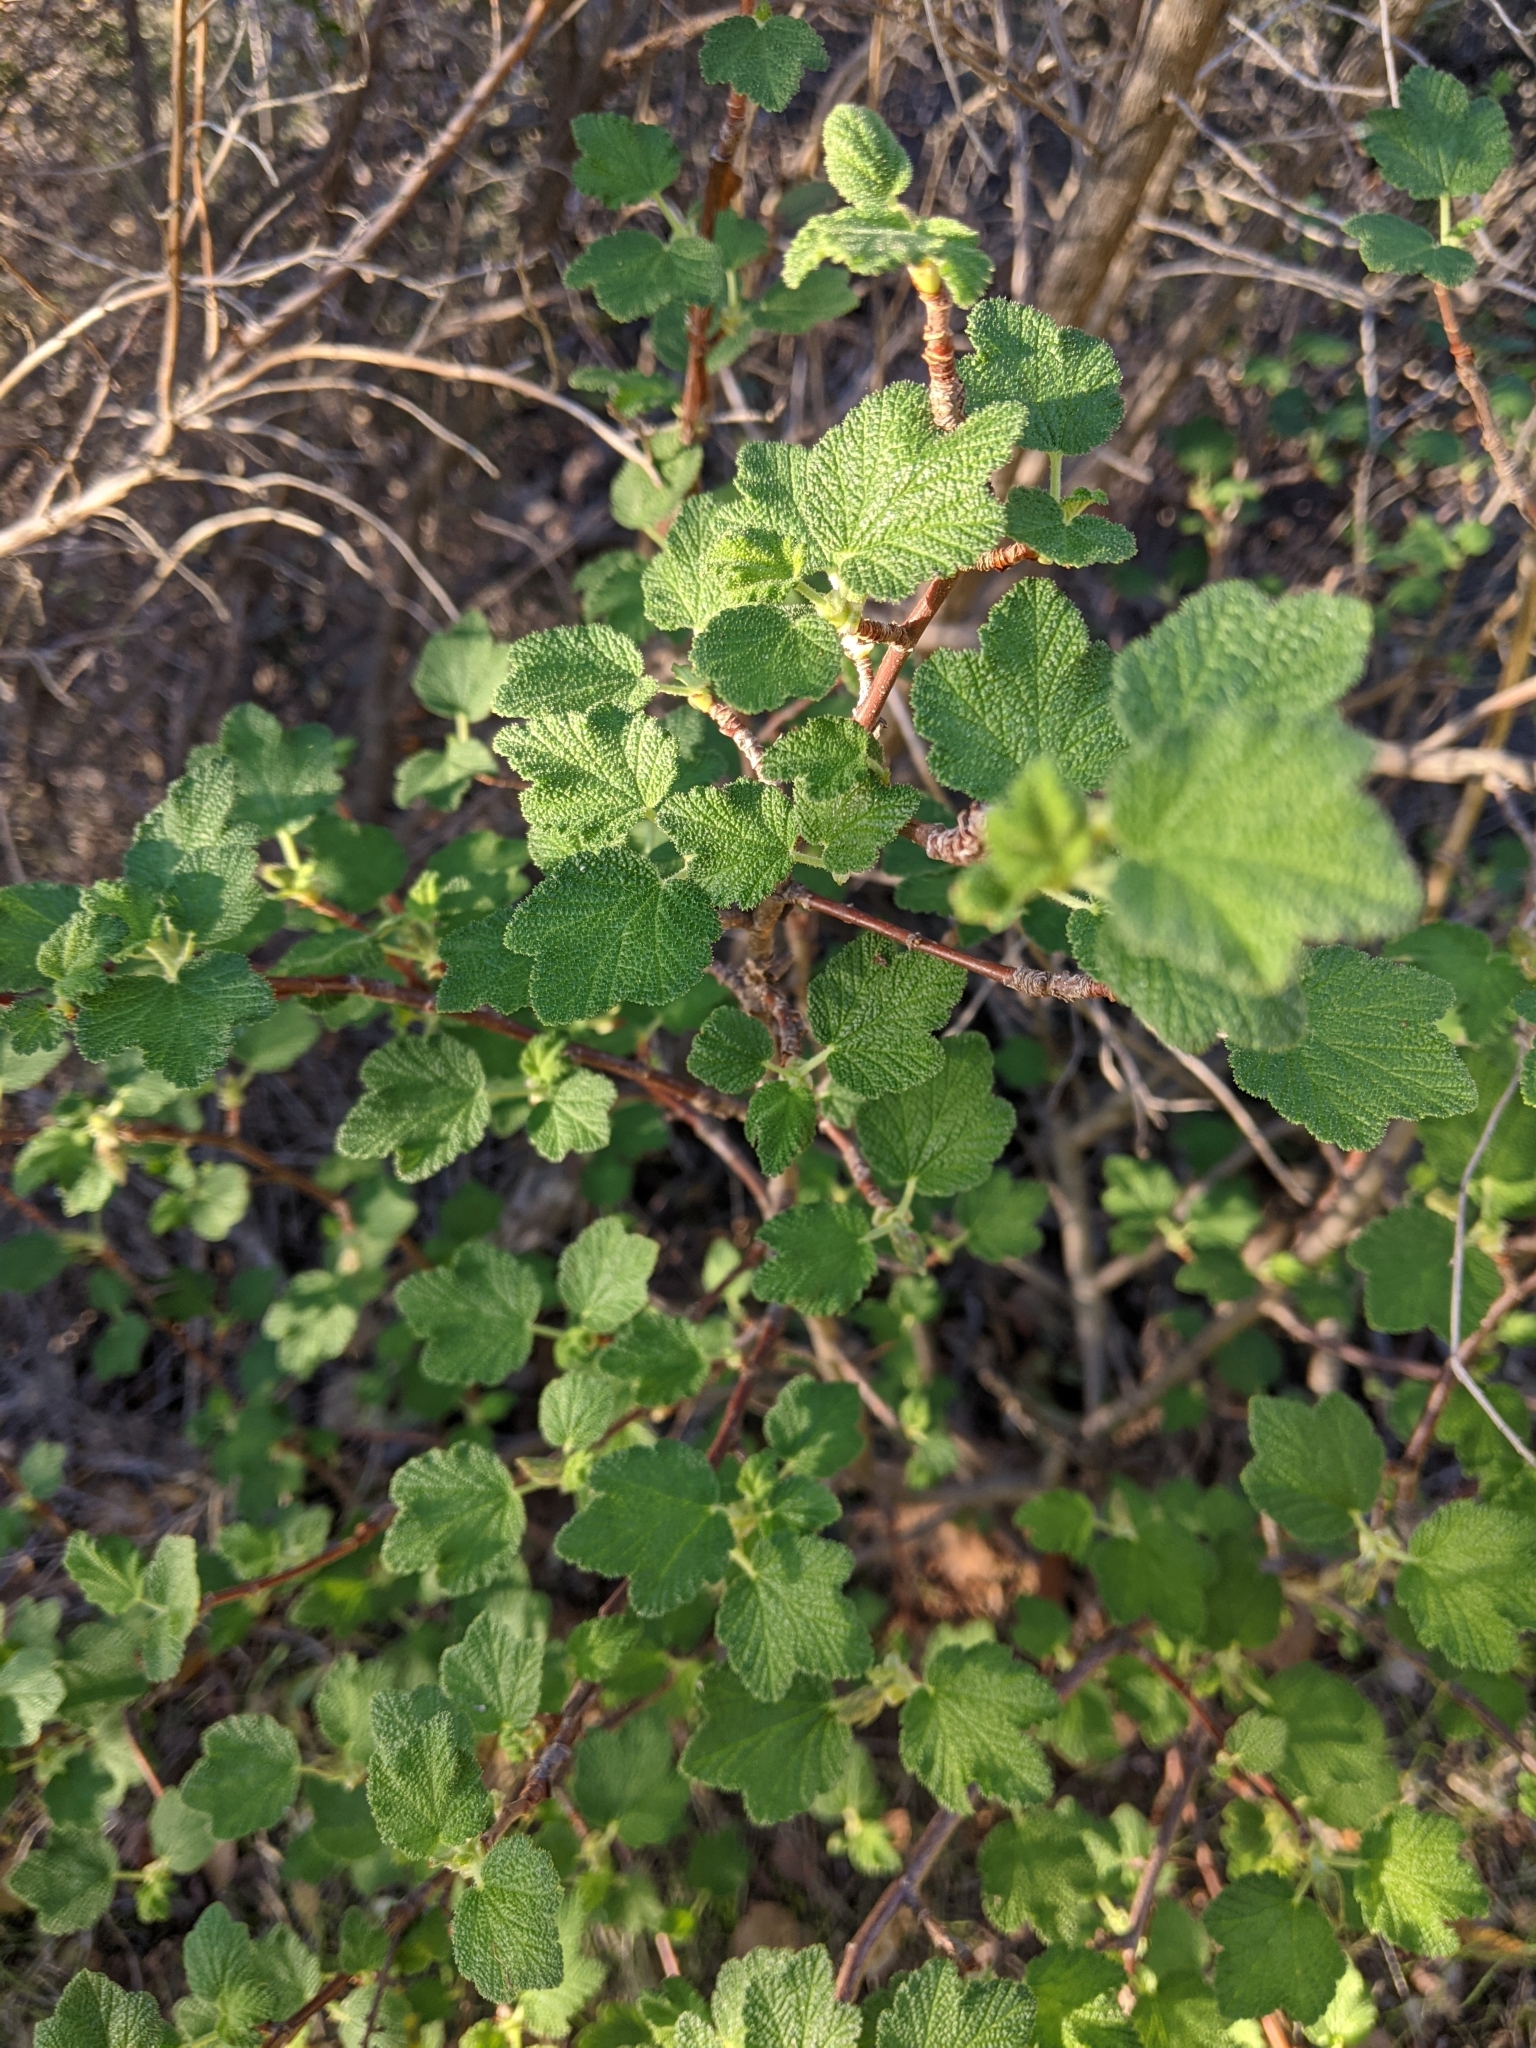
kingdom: Plantae
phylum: Tracheophyta
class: Magnoliopsida
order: Saxifragales
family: Grossulariaceae
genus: Ribes
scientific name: Ribes malvaceum
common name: Chaparral currant
